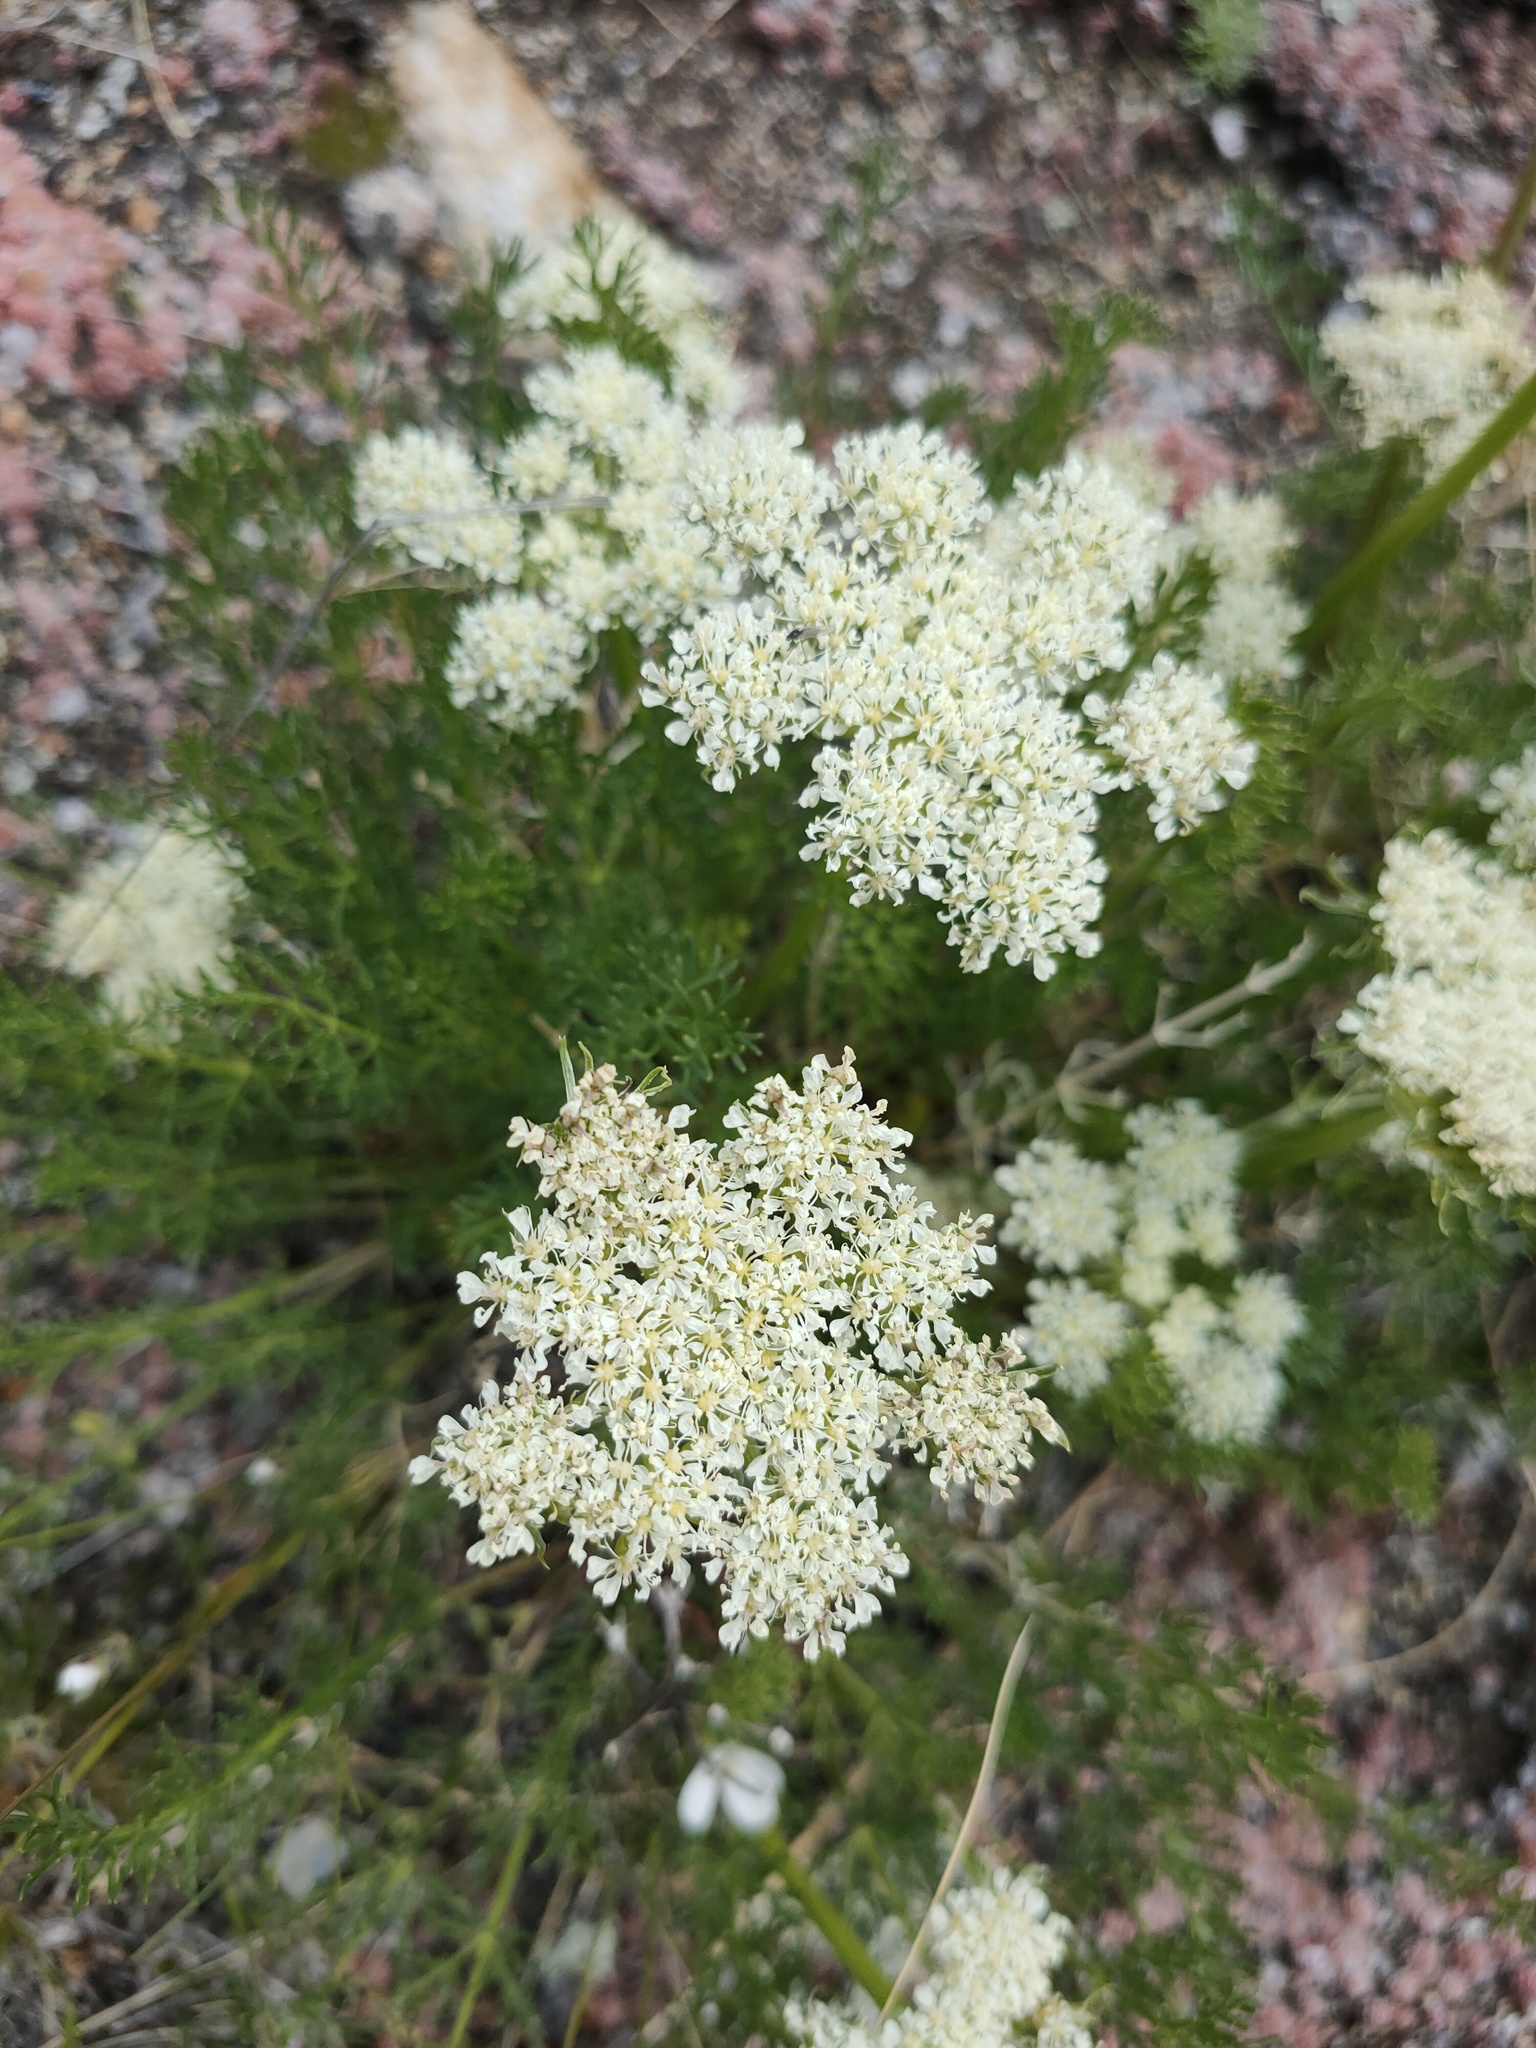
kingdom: Plantae
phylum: Tracheophyta
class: Magnoliopsida
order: Apiales
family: Apiaceae
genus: Ferulopsis
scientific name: Ferulopsis hystrix
